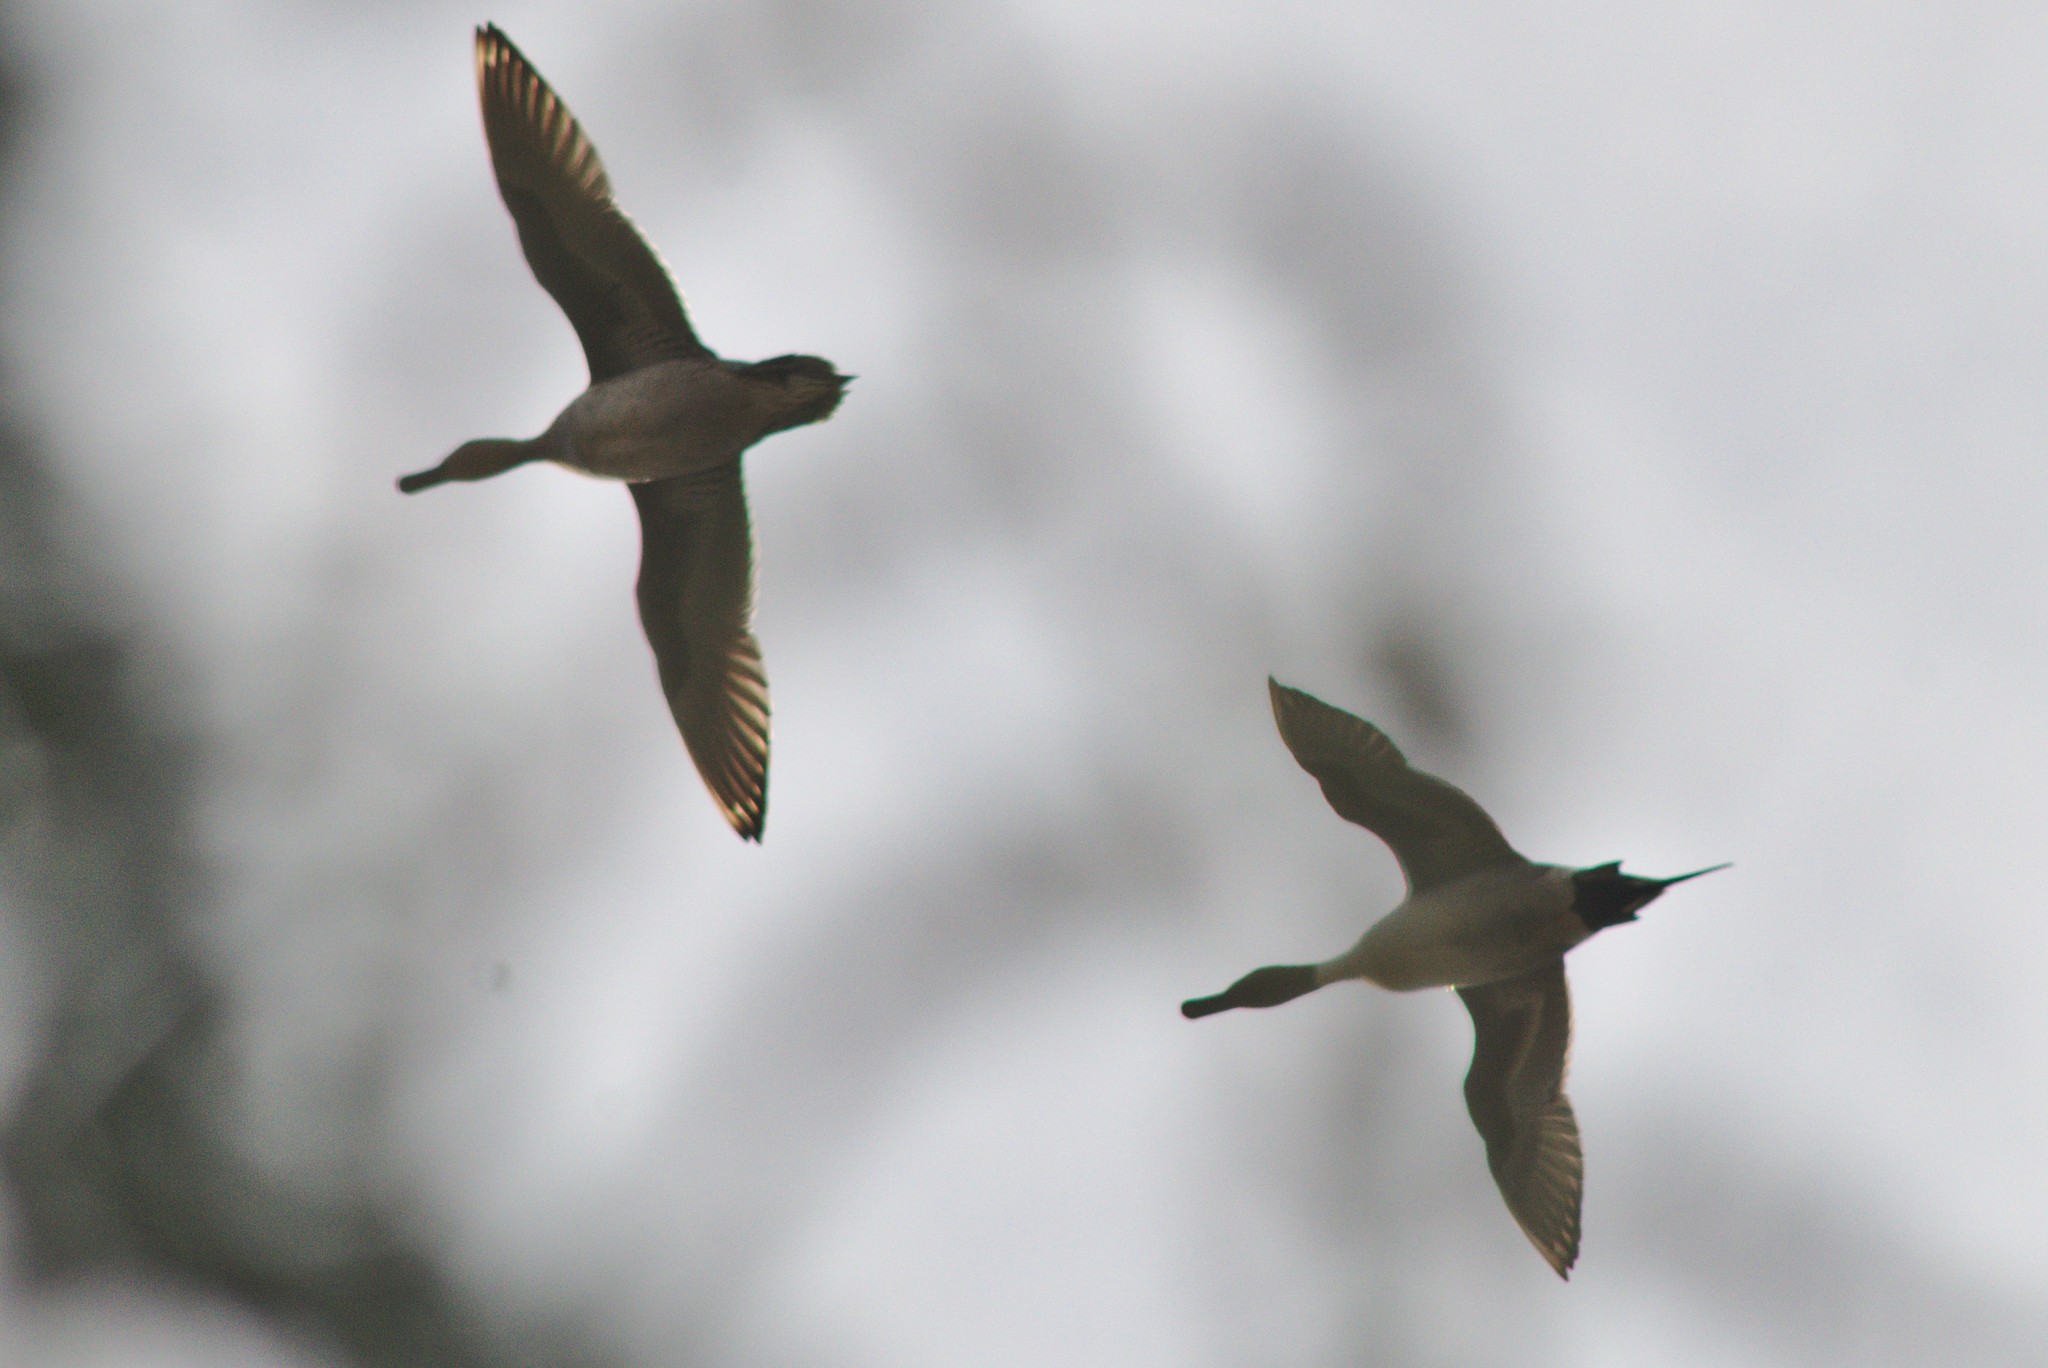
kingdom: Animalia
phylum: Chordata
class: Aves
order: Anseriformes
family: Anatidae
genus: Anas
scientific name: Anas acuta
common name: Northern pintail
